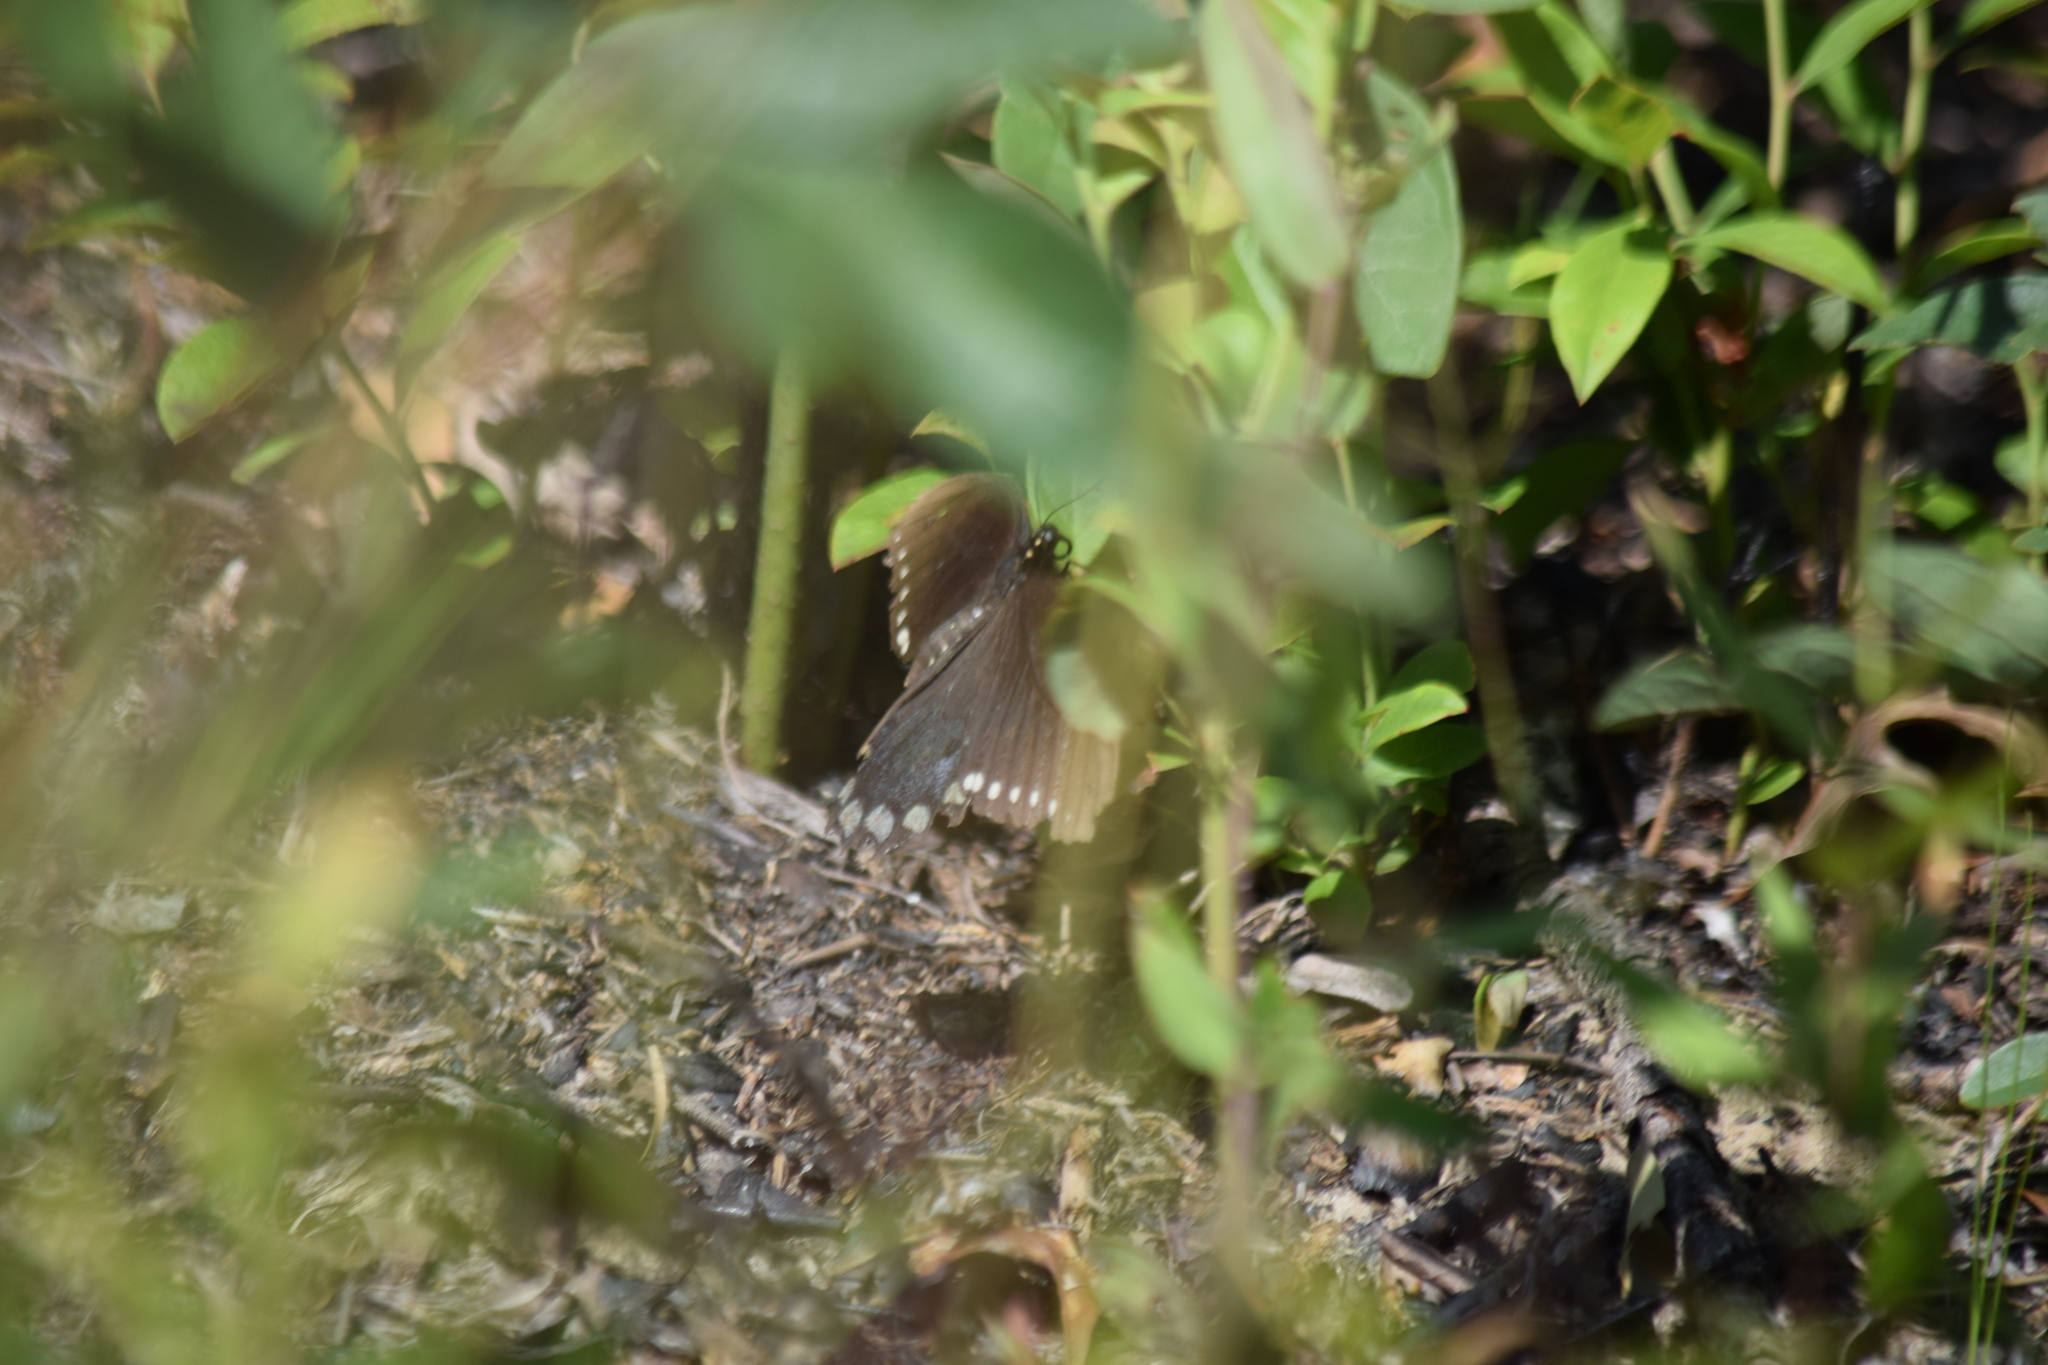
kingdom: Animalia
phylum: Arthropoda
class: Insecta
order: Lepidoptera
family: Papilionidae
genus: Papilio
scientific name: Papilio troilus
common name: Spicebush swallowtail
